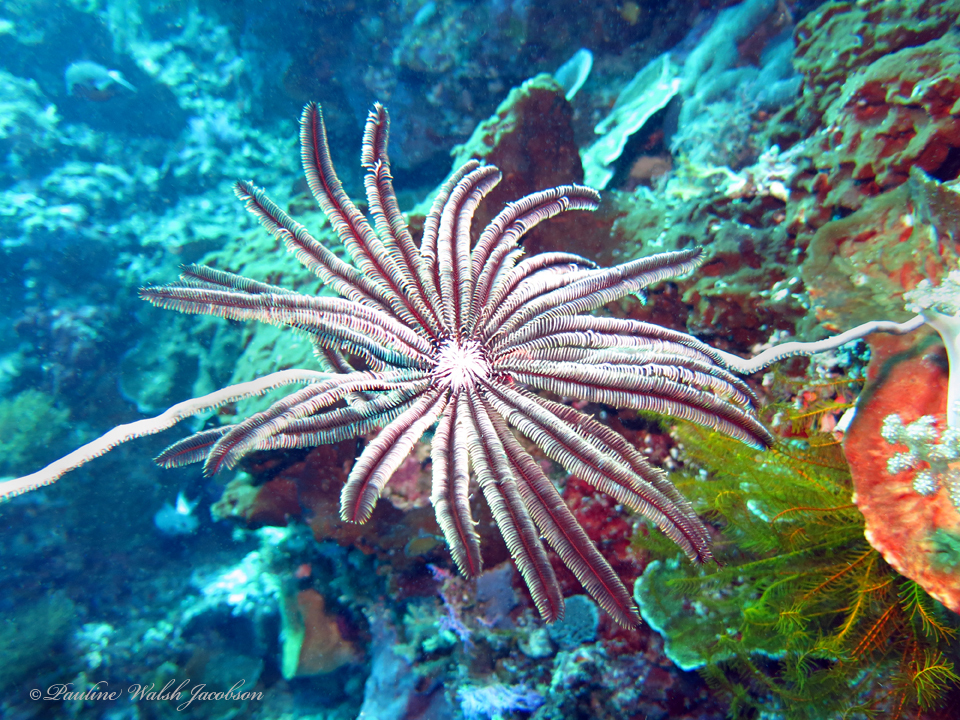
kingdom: Animalia
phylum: Echinodermata
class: Crinoidea
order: Comatulida
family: Colobometridae
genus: Cenometra
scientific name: Cenometra bella
